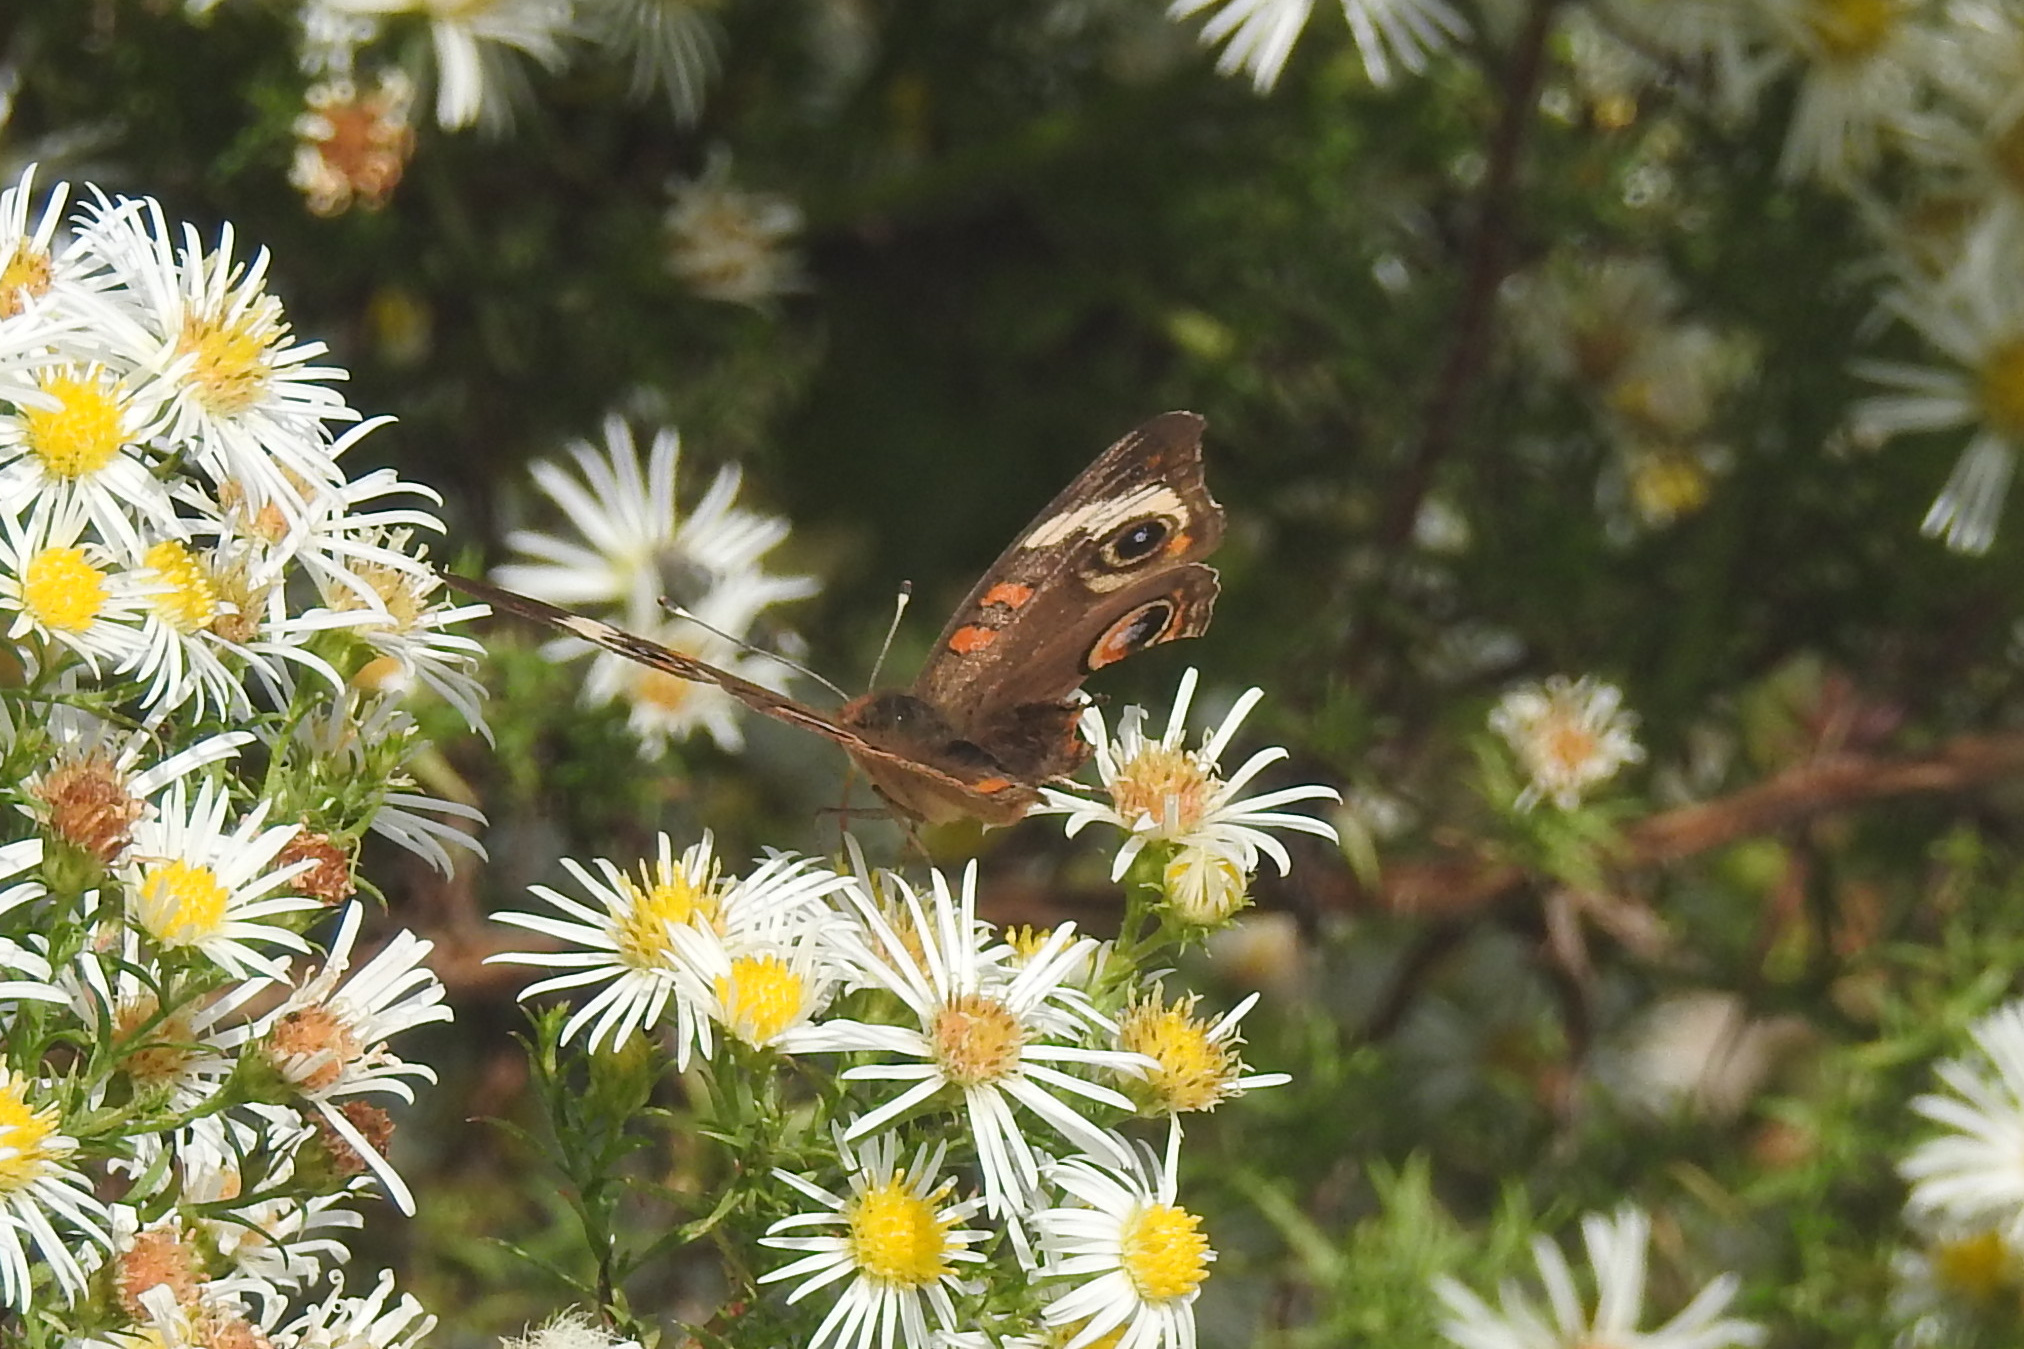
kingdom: Animalia
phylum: Arthropoda
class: Insecta
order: Lepidoptera
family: Nymphalidae
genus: Junonia
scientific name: Junonia coenia
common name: Common buckeye
